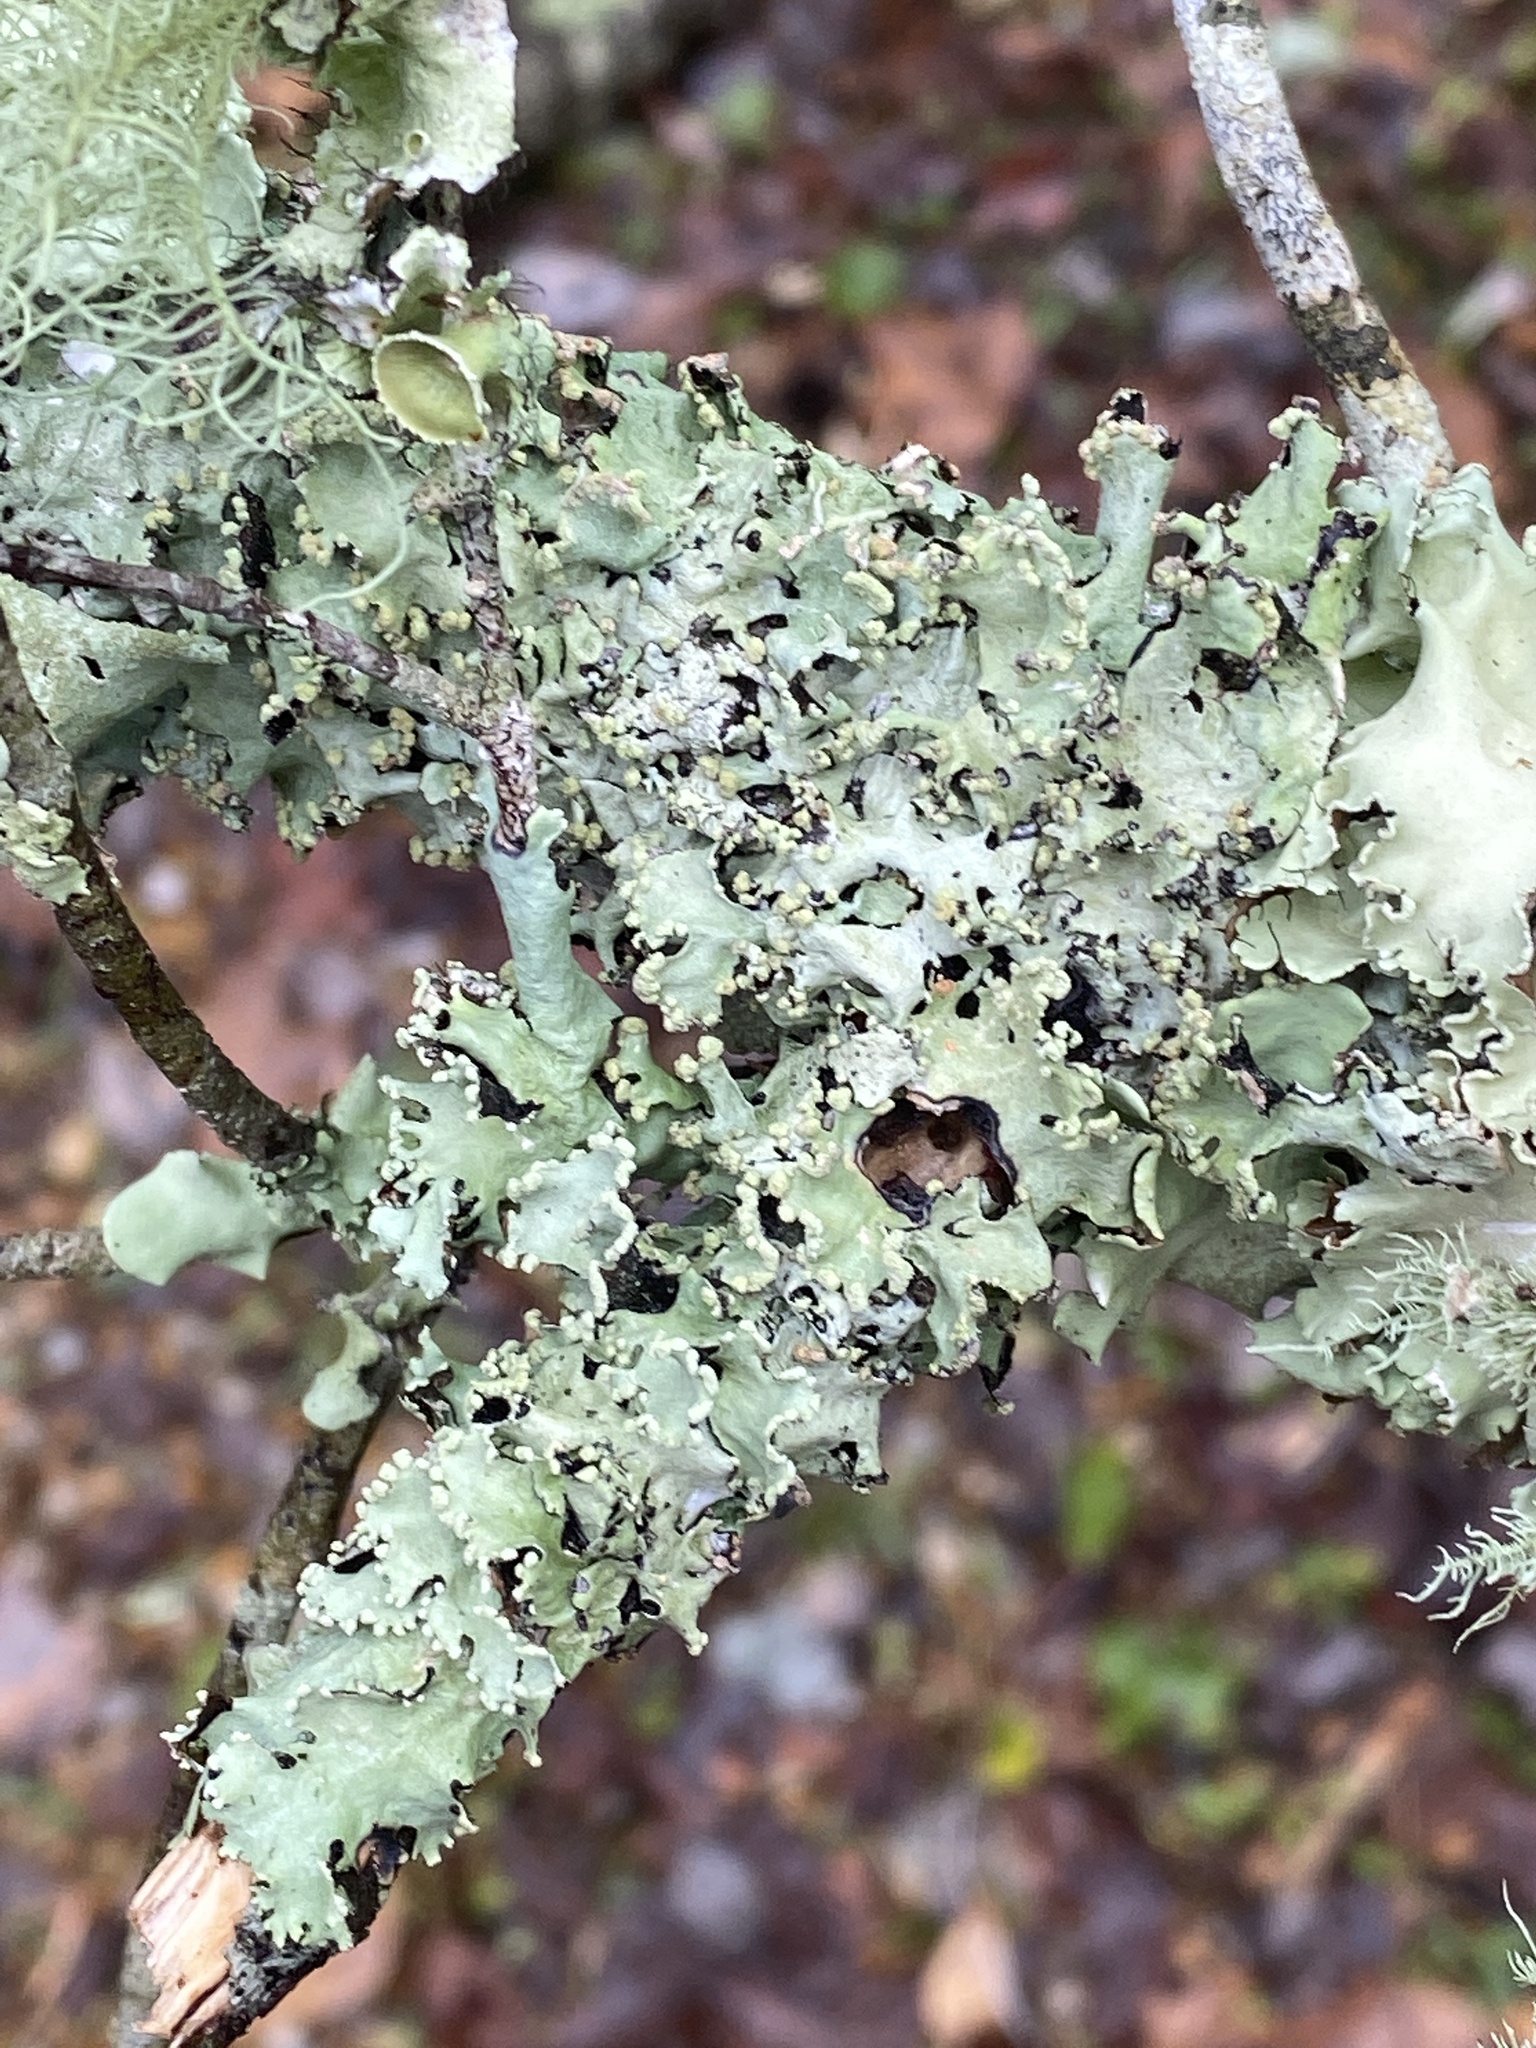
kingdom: Fungi
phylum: Ascomycota
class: Lecanoromycetes
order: Lecanorales
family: Parmeliaceae
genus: Parmotrema
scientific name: Parmotrema reticulatum
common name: Black sheet lichen
